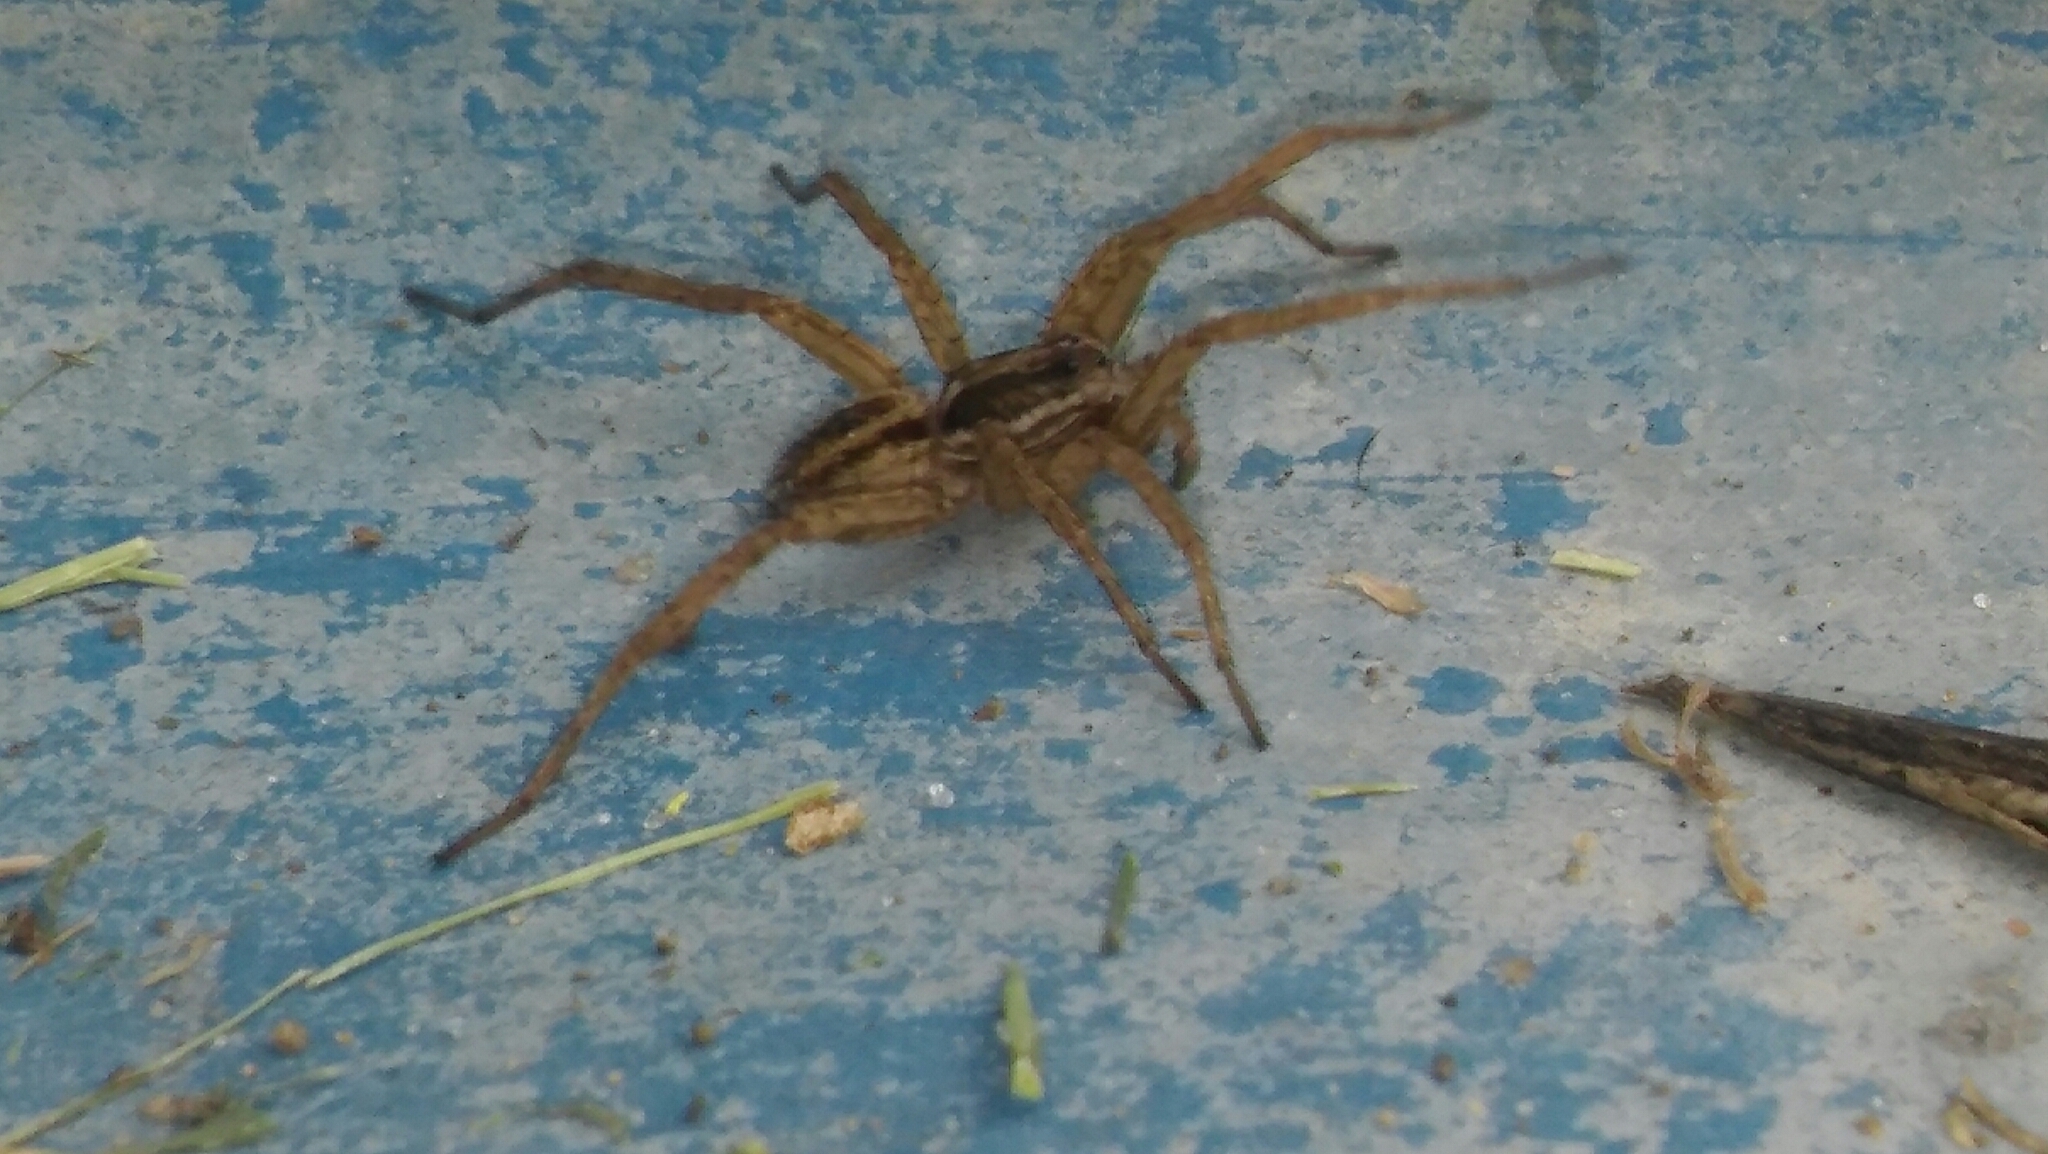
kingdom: Animalia
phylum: Arthropoda
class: Arachnida
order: Araneae
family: Lycosidae
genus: Alopecosa
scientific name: Alopecosa moesta
